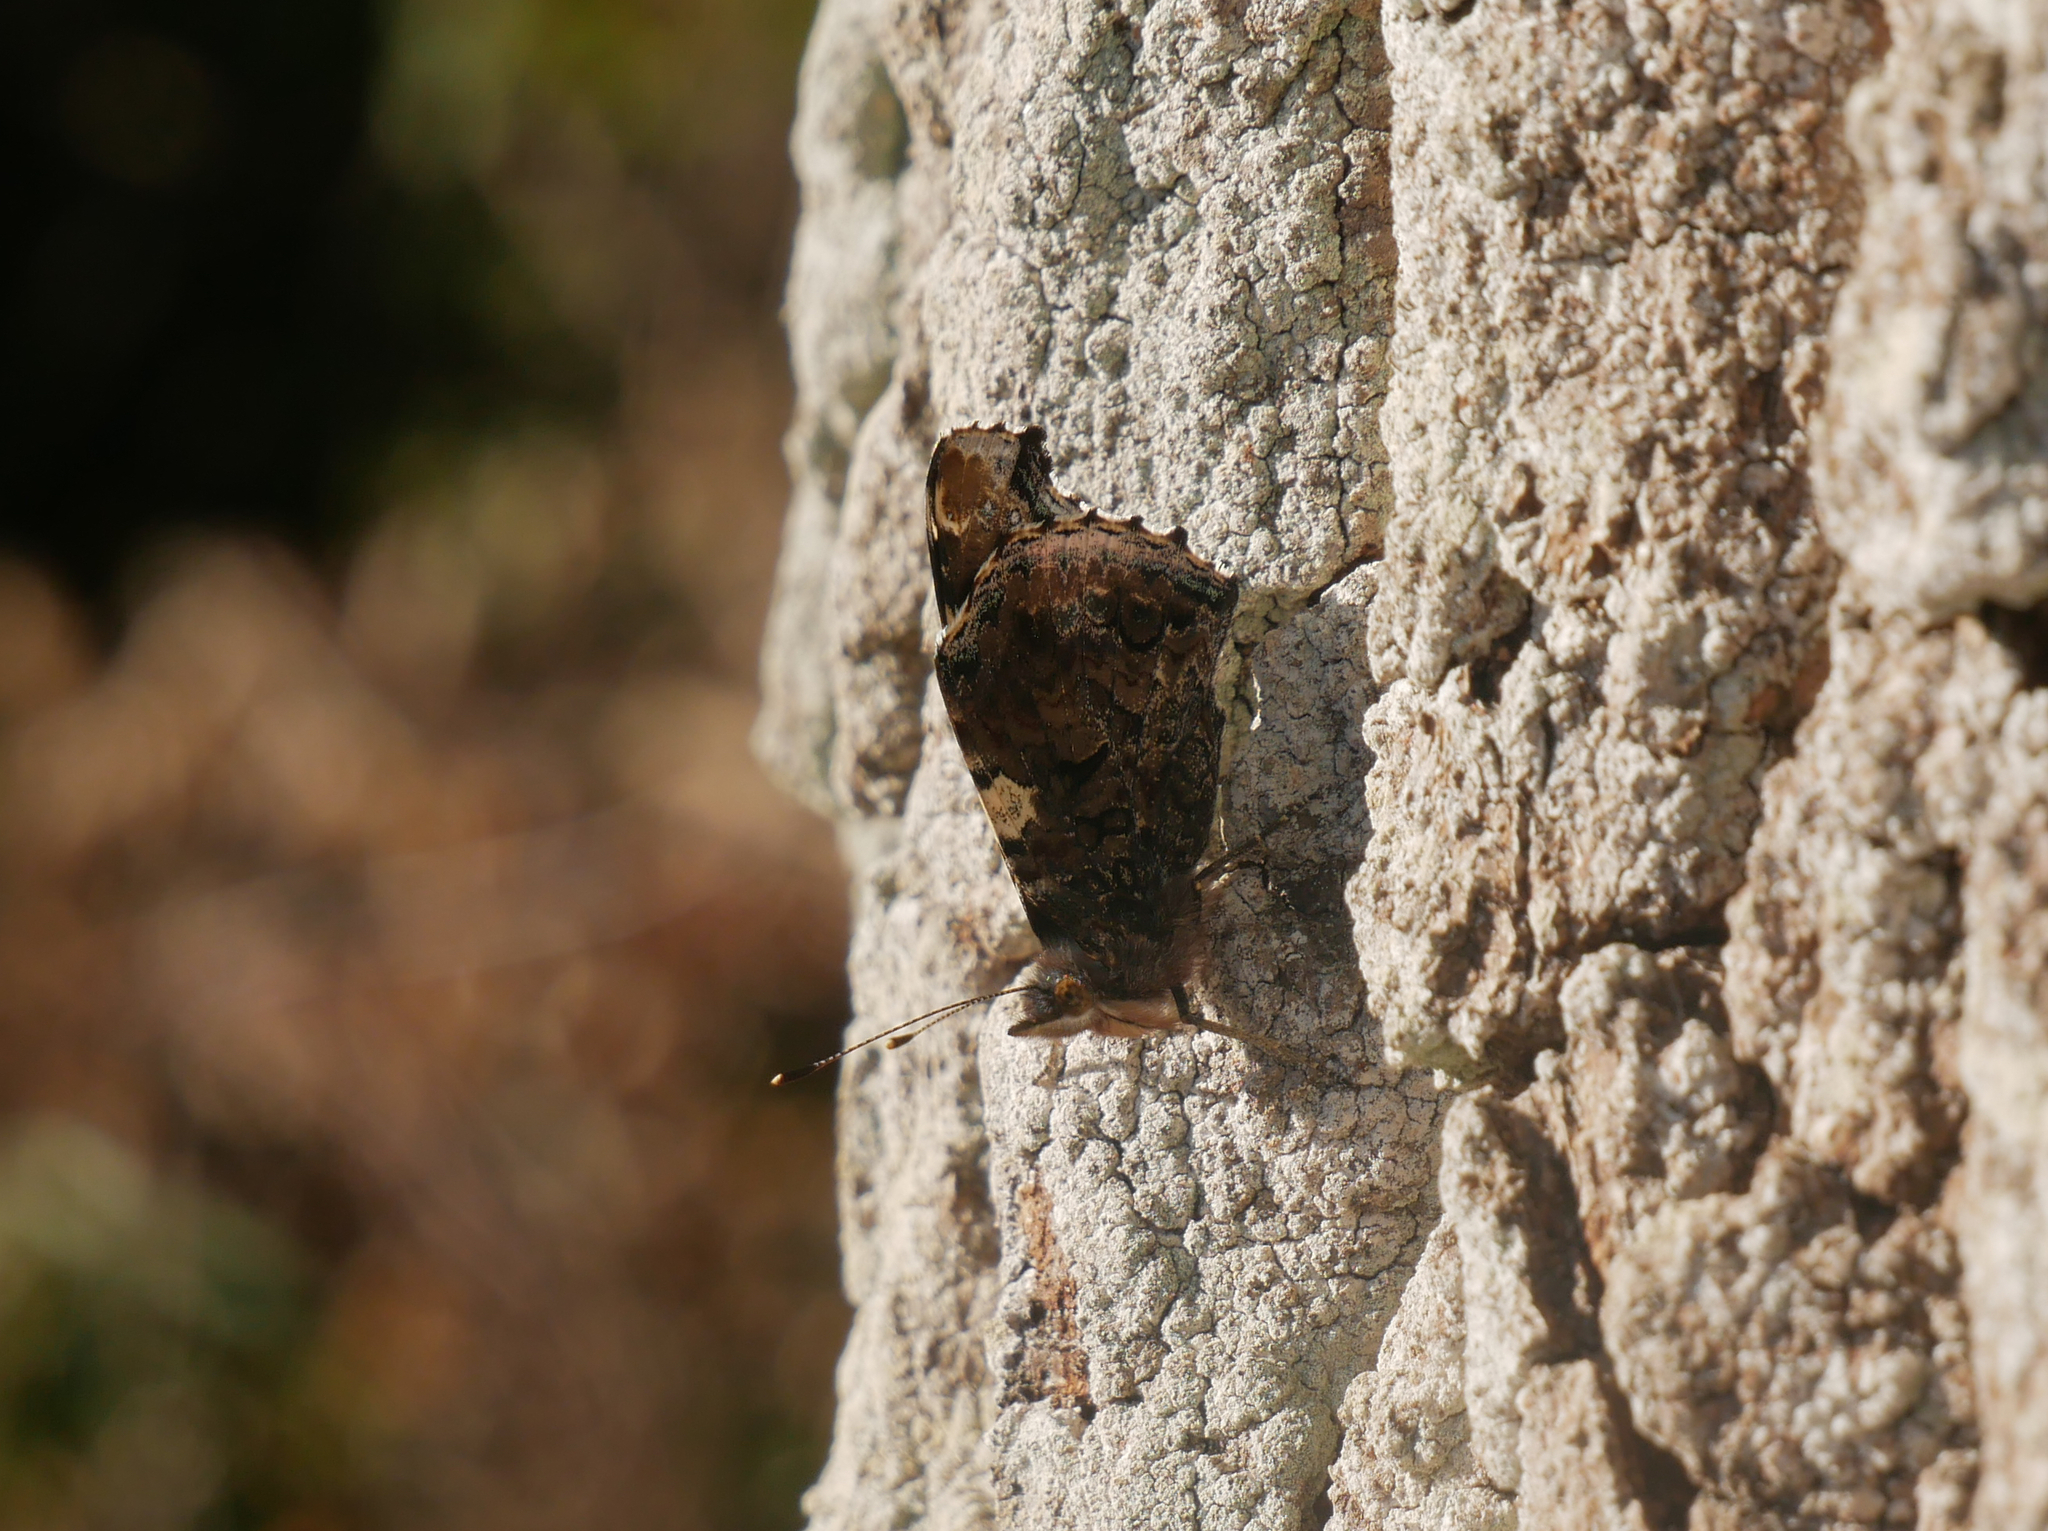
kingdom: Animalia
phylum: Arthropoda
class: Insecta
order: Lepidoptera
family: Nymphalidae
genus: Vanessa
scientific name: Vanessa atalanta
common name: Red admiral
